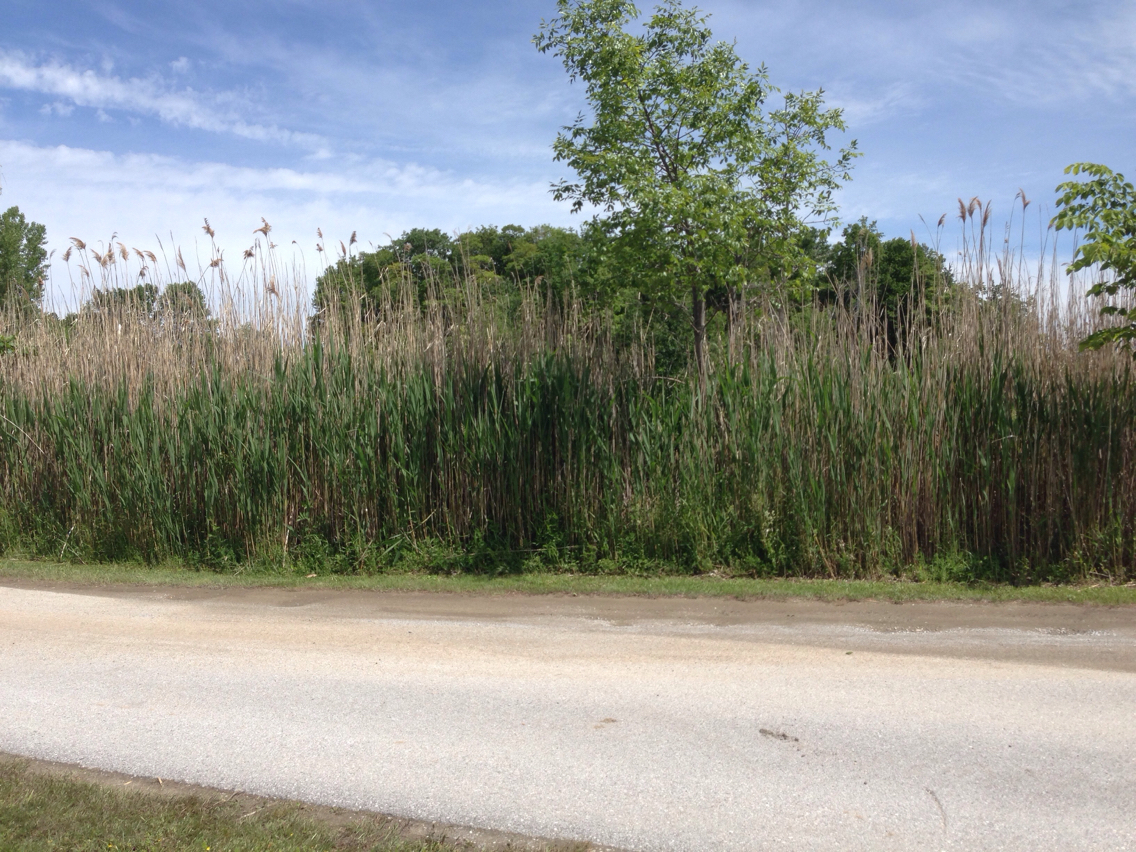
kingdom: Plantae
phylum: Tracheophyta
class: Liliopsida
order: Poales
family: Poaceae
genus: Phragmites
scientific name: Phragmites australis
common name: Common reed
